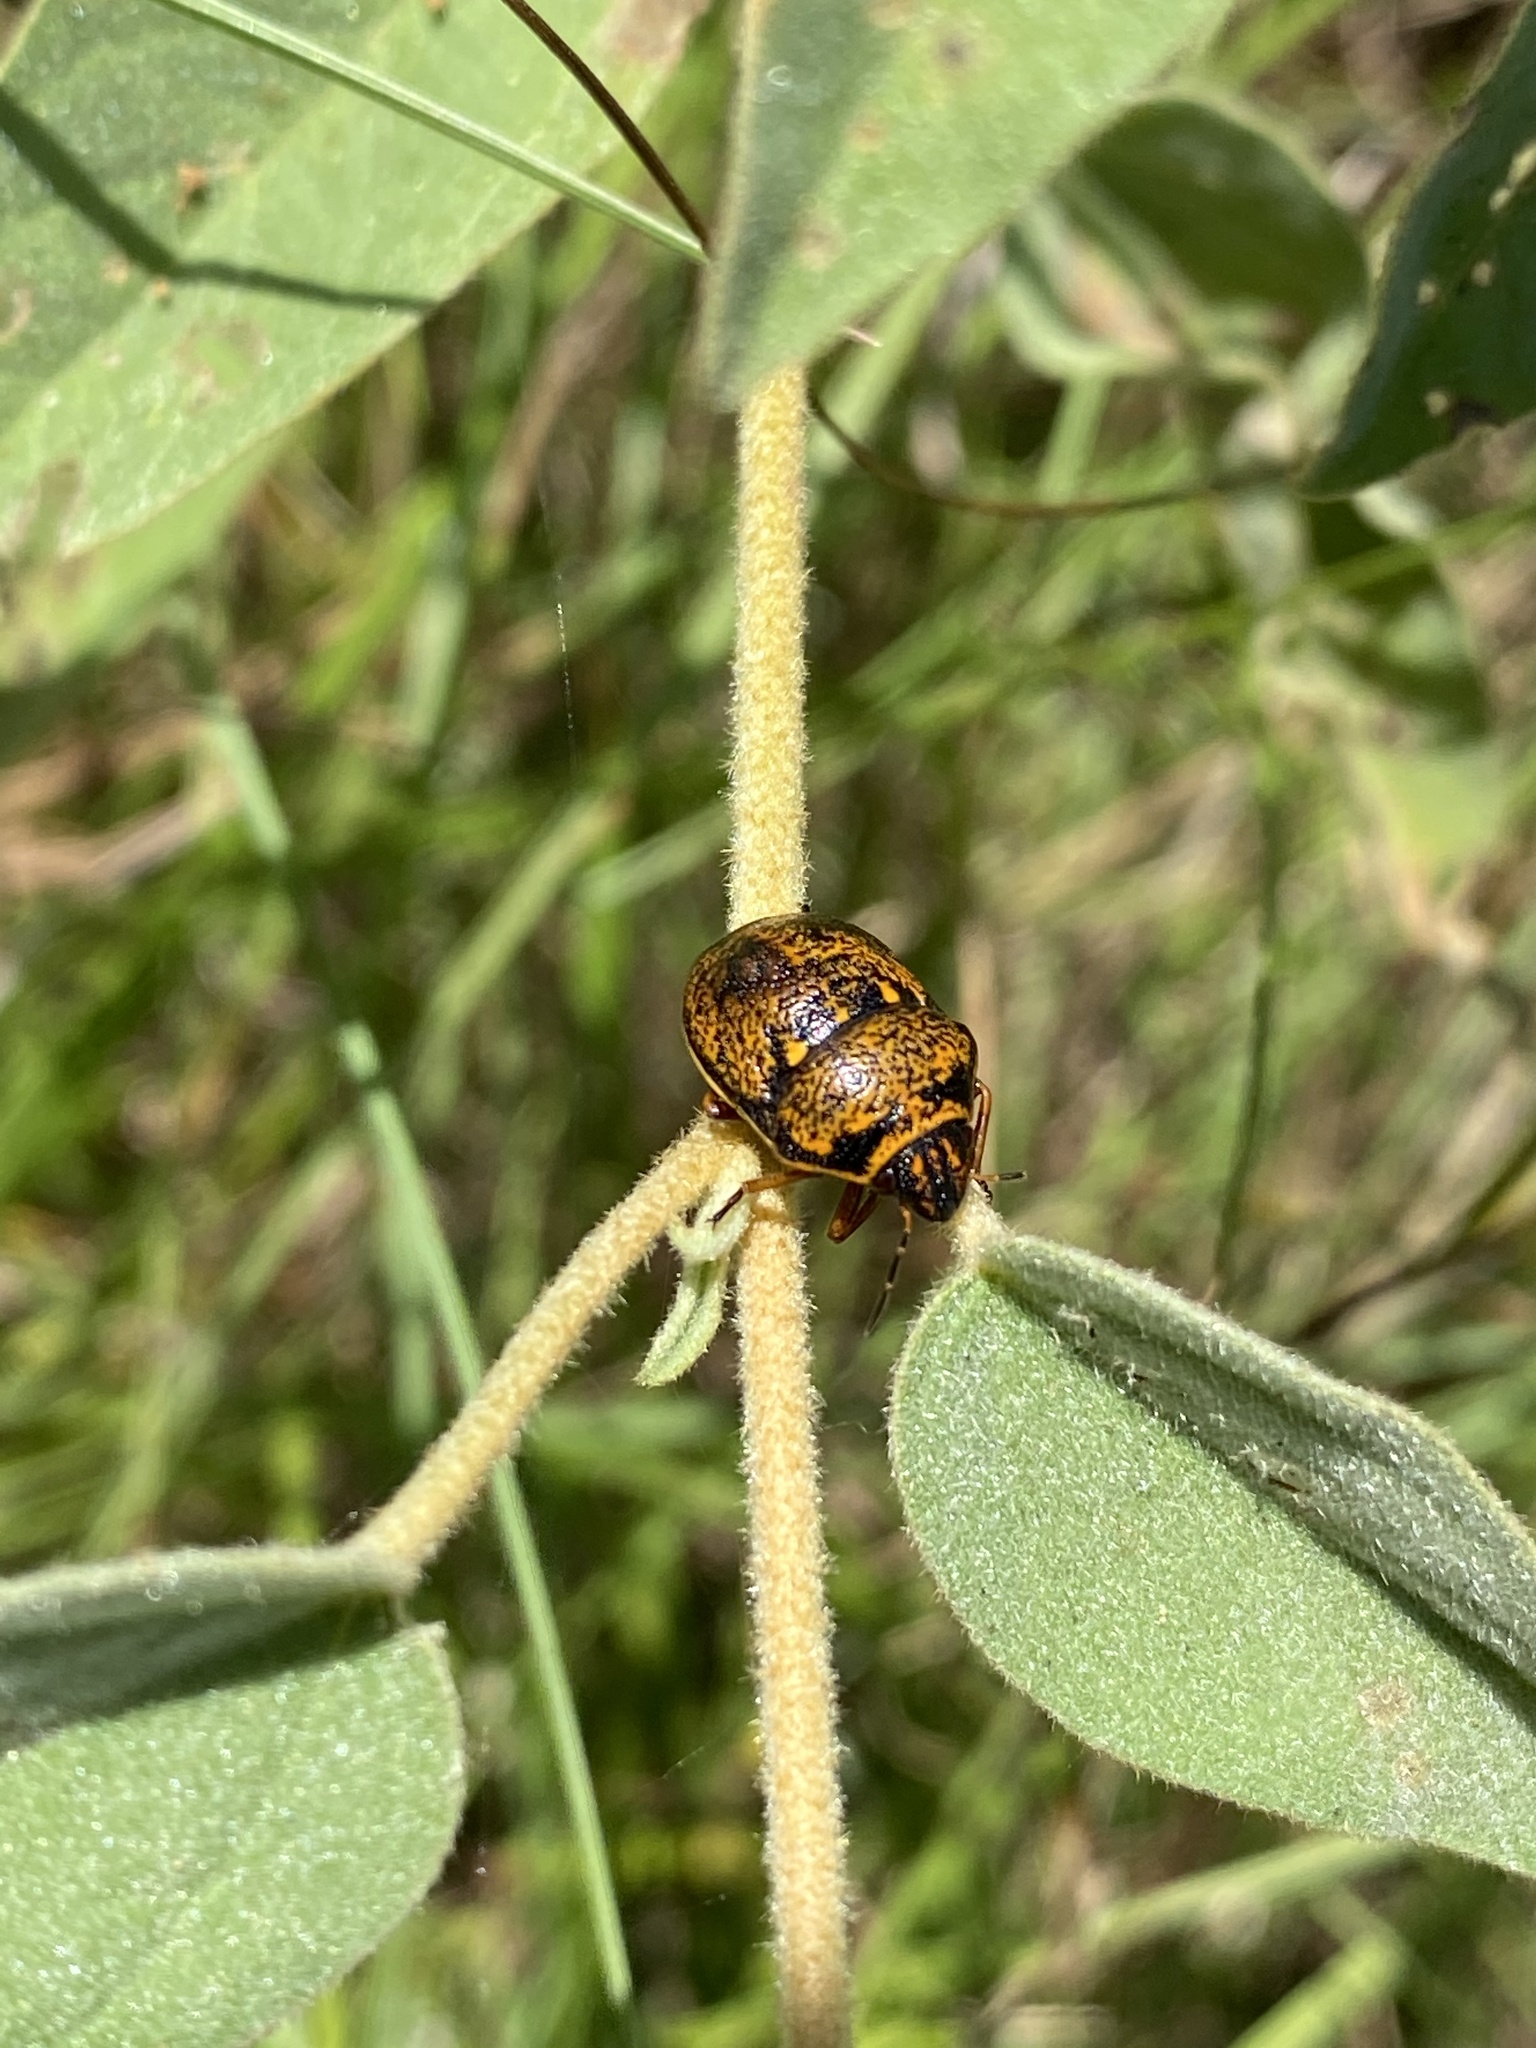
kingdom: Animalia
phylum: Arthropoda
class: Insecta
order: Hemiptera
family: Scutelleridae
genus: Orsilochides
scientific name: Orsilochides guttata
